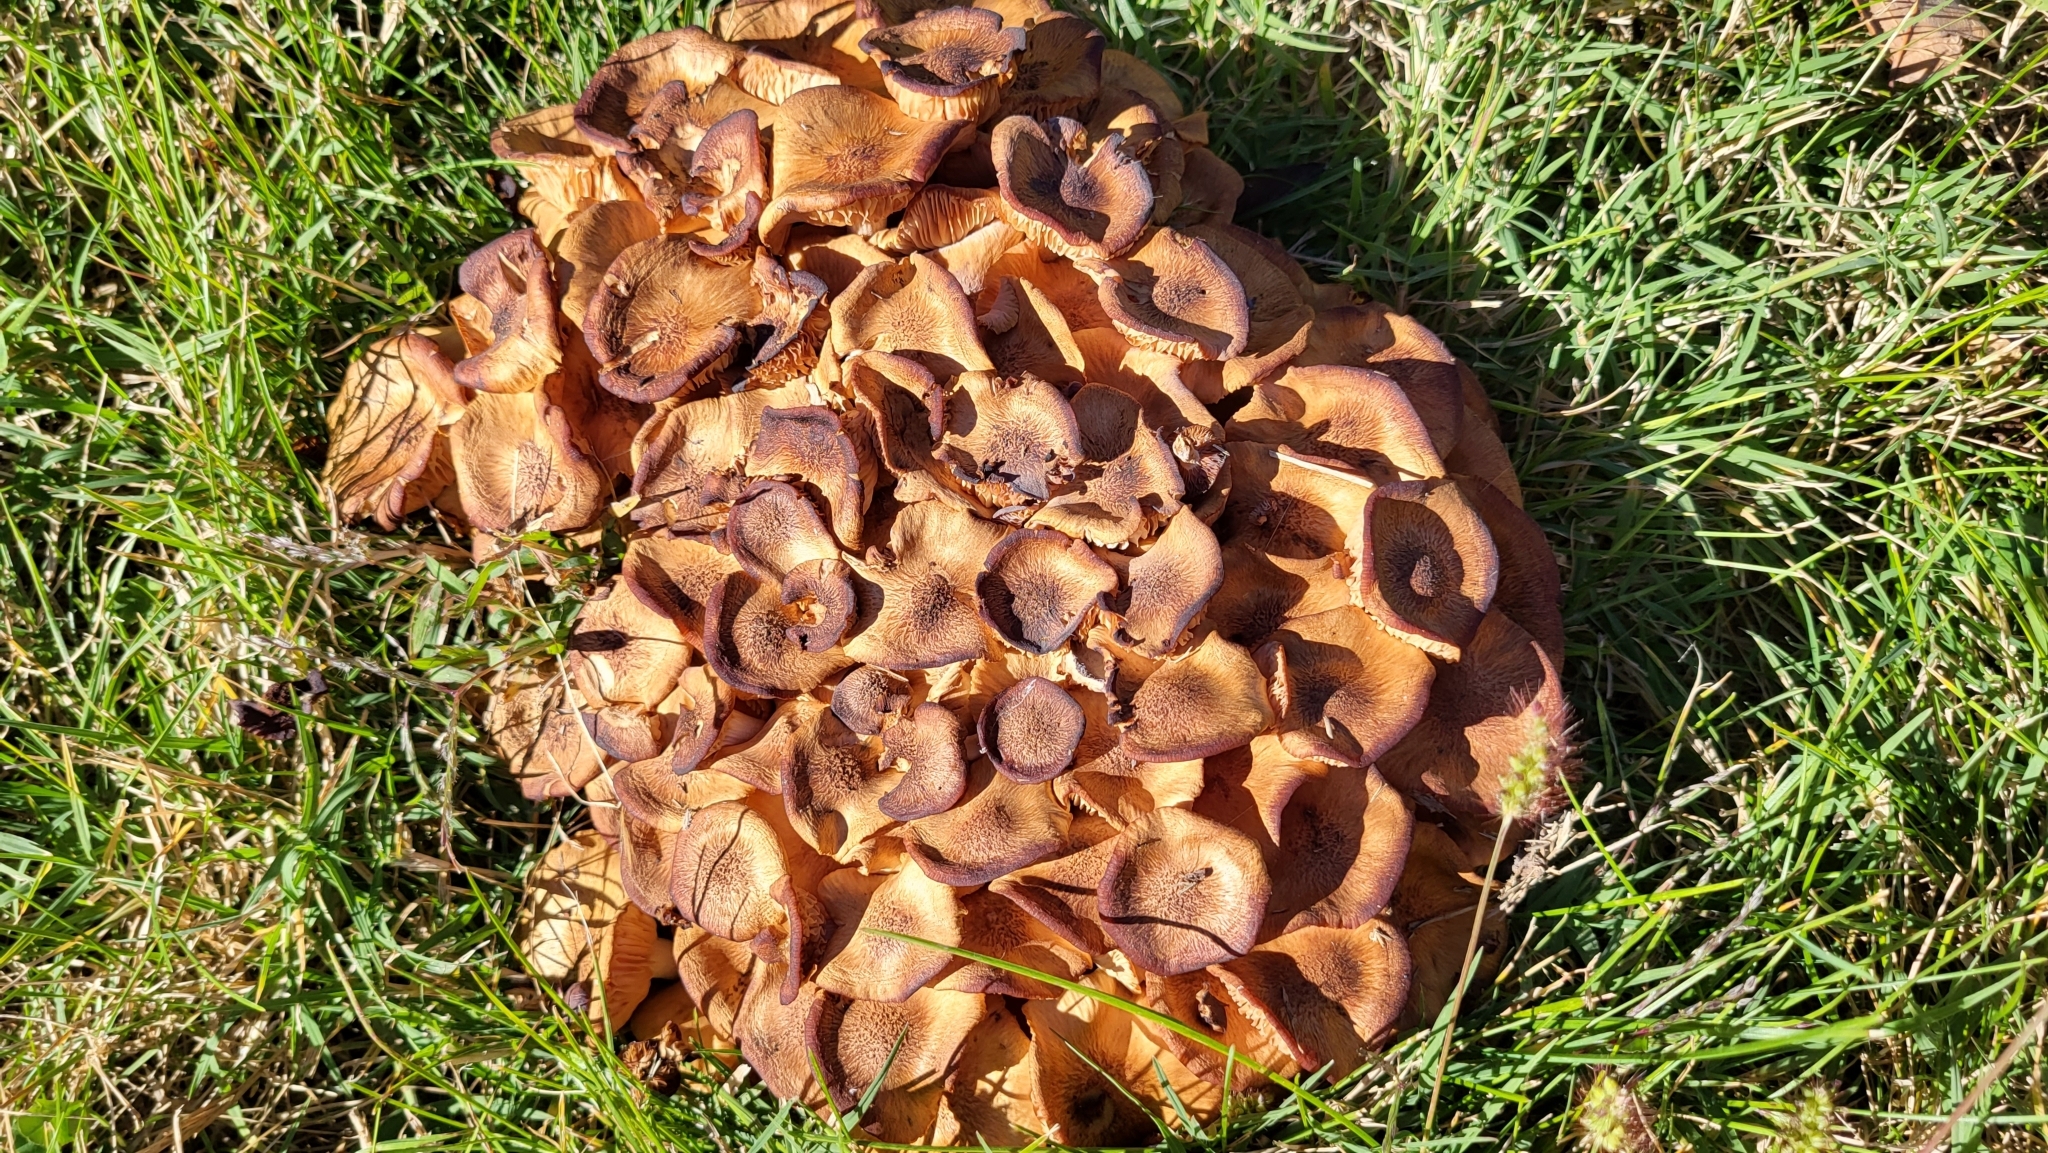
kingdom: Fungi
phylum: Basidiomycota
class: Agaricomycetes
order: Agaricales
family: Physalacriaceae
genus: Desarmillaria
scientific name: Desarmillaria caespitosa
